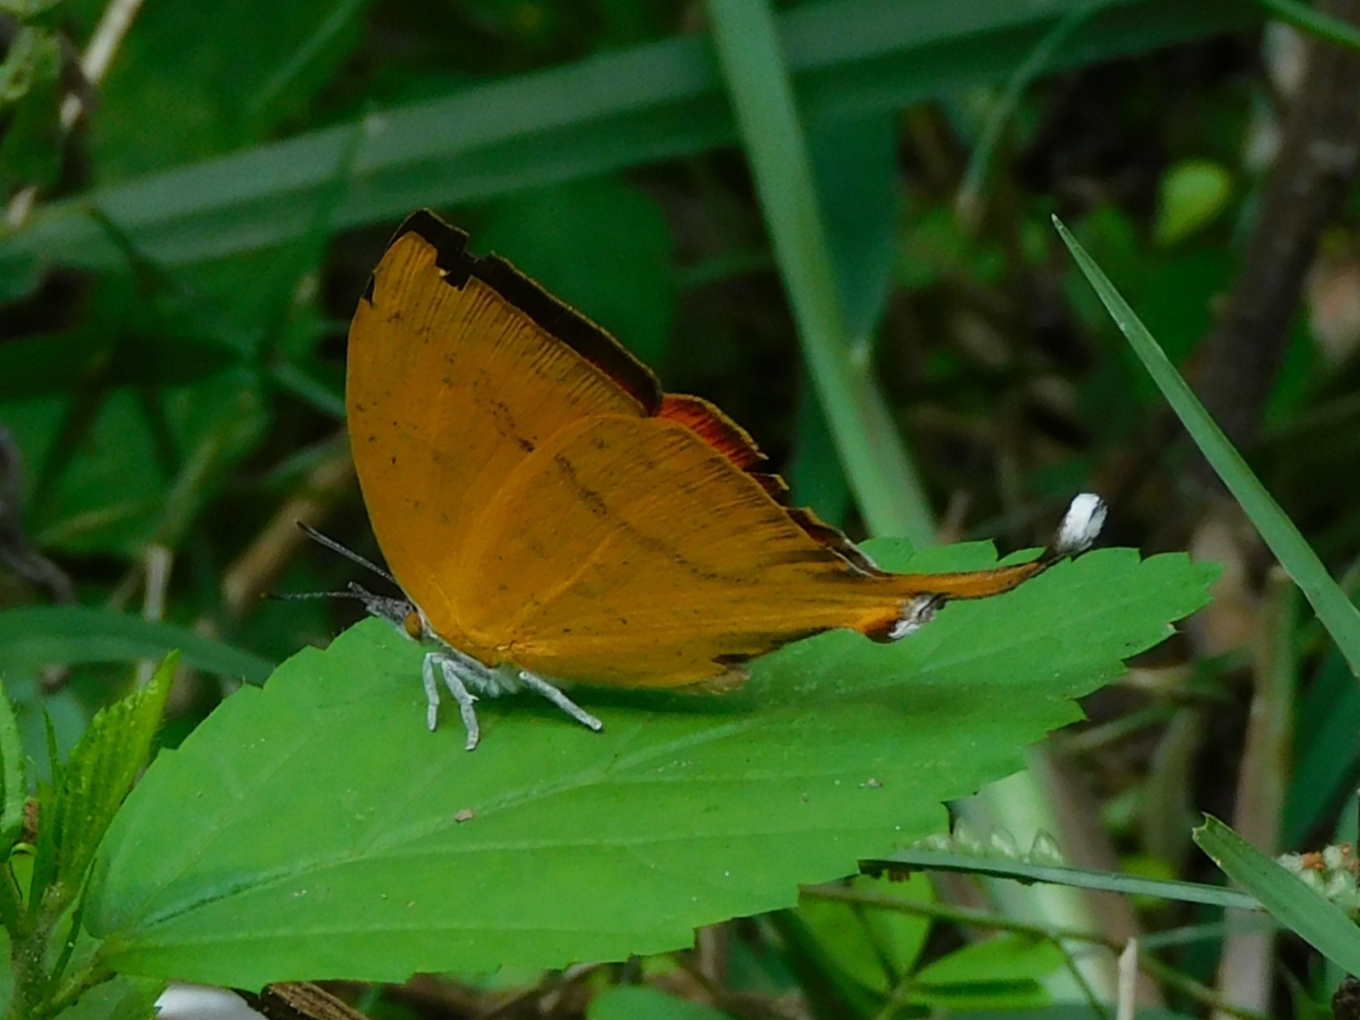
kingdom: Animalia
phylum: Arthropoda
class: Insecta
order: Lepidoptera
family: Lycaenidae
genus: Loxura
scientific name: Loxura atymnus
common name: Common yamfly
